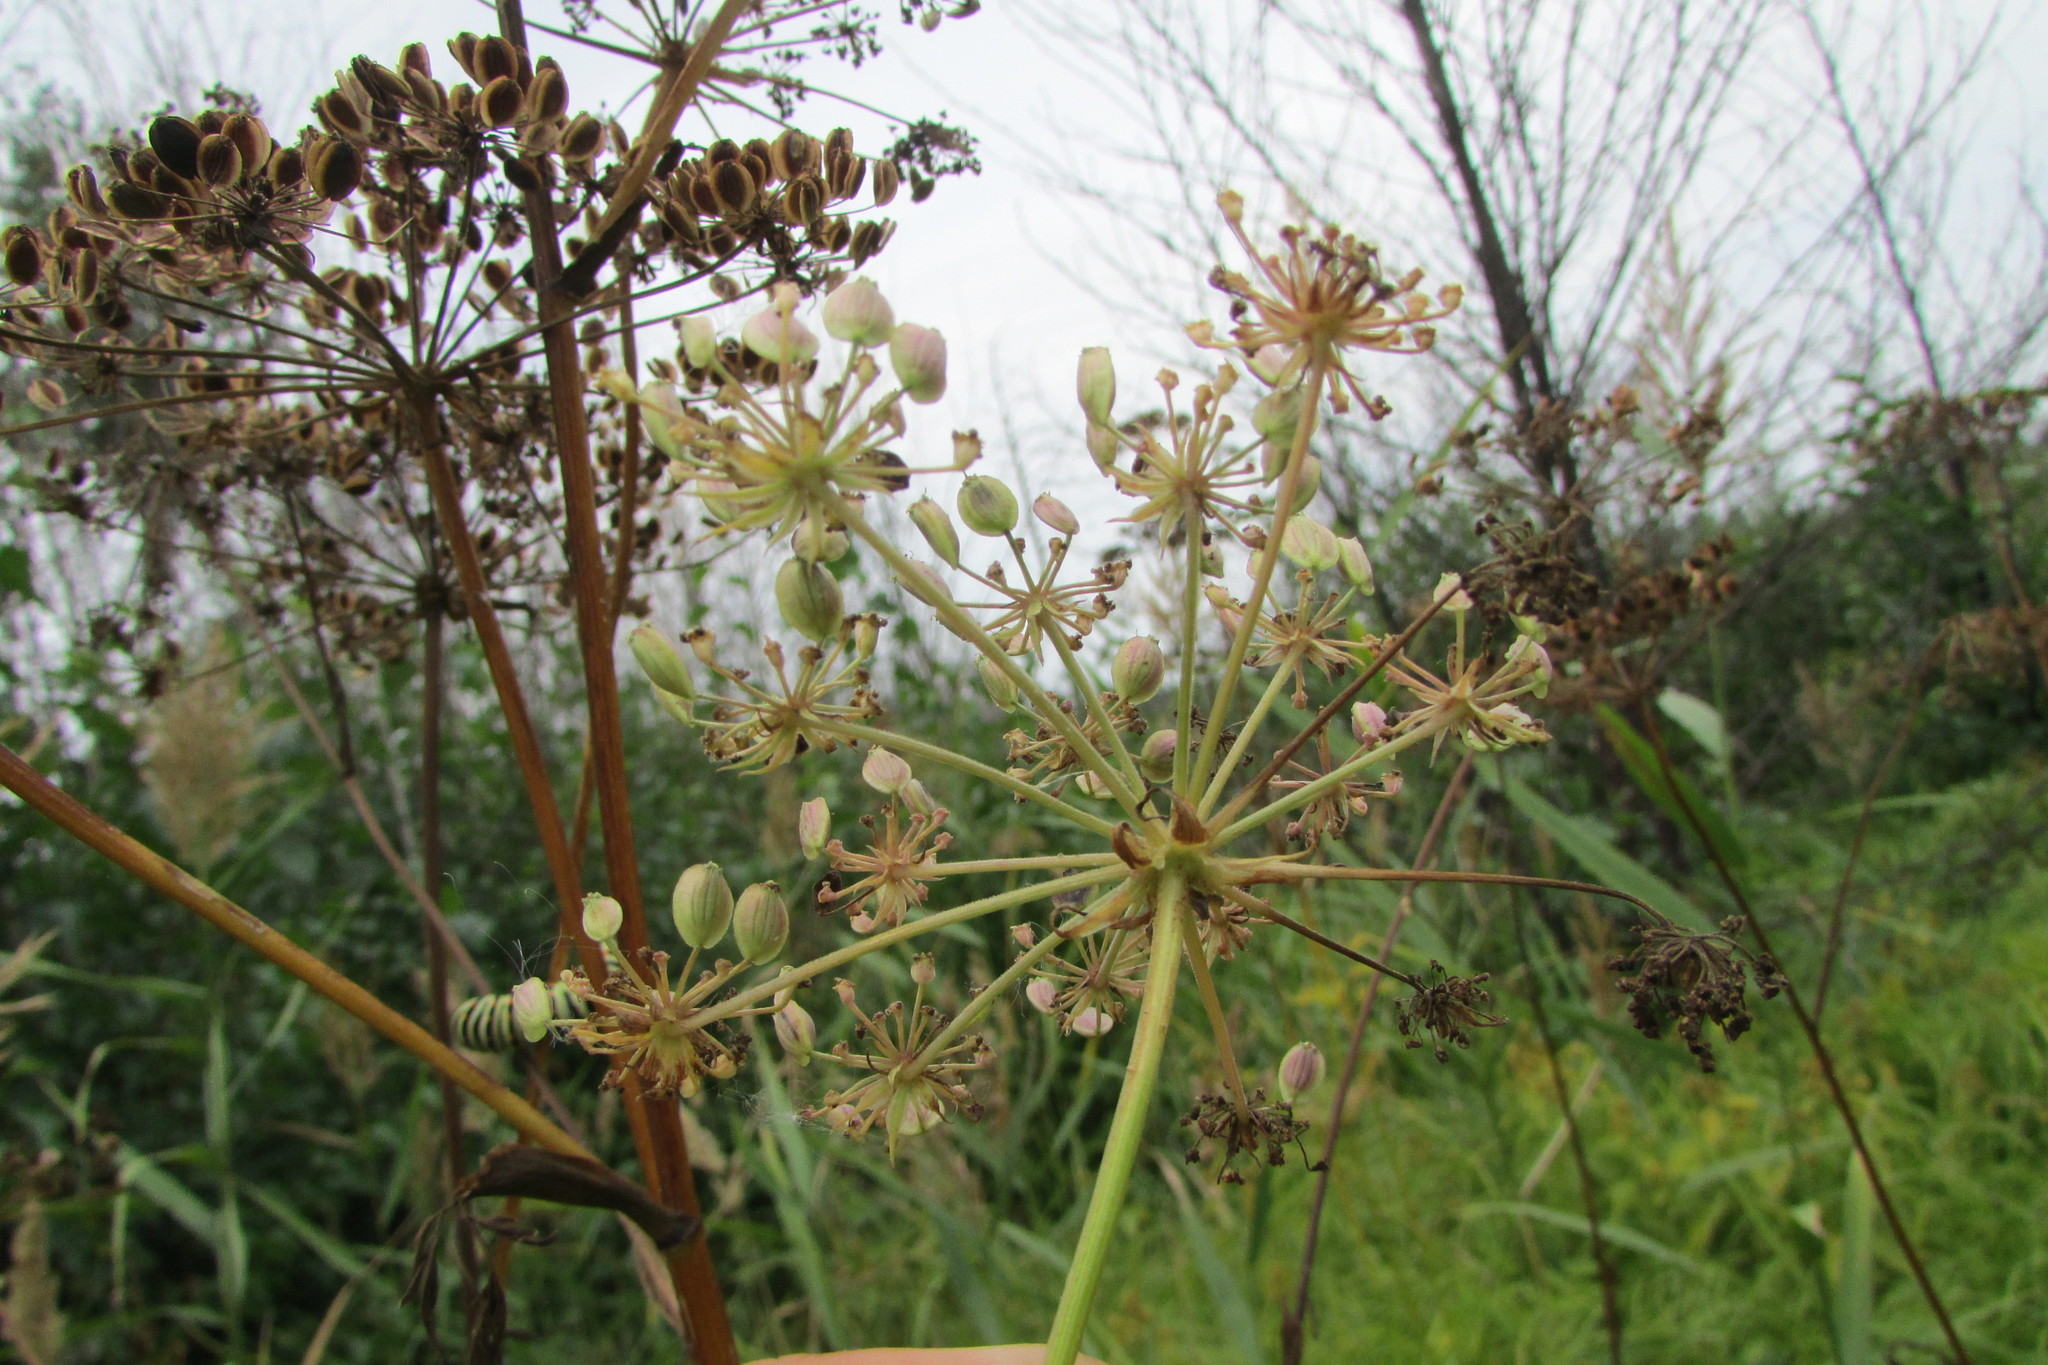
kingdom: Plantae
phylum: Tracheophyta
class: Magnoliopsida
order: Apiales
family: Apiaceae
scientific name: Apiaceae
